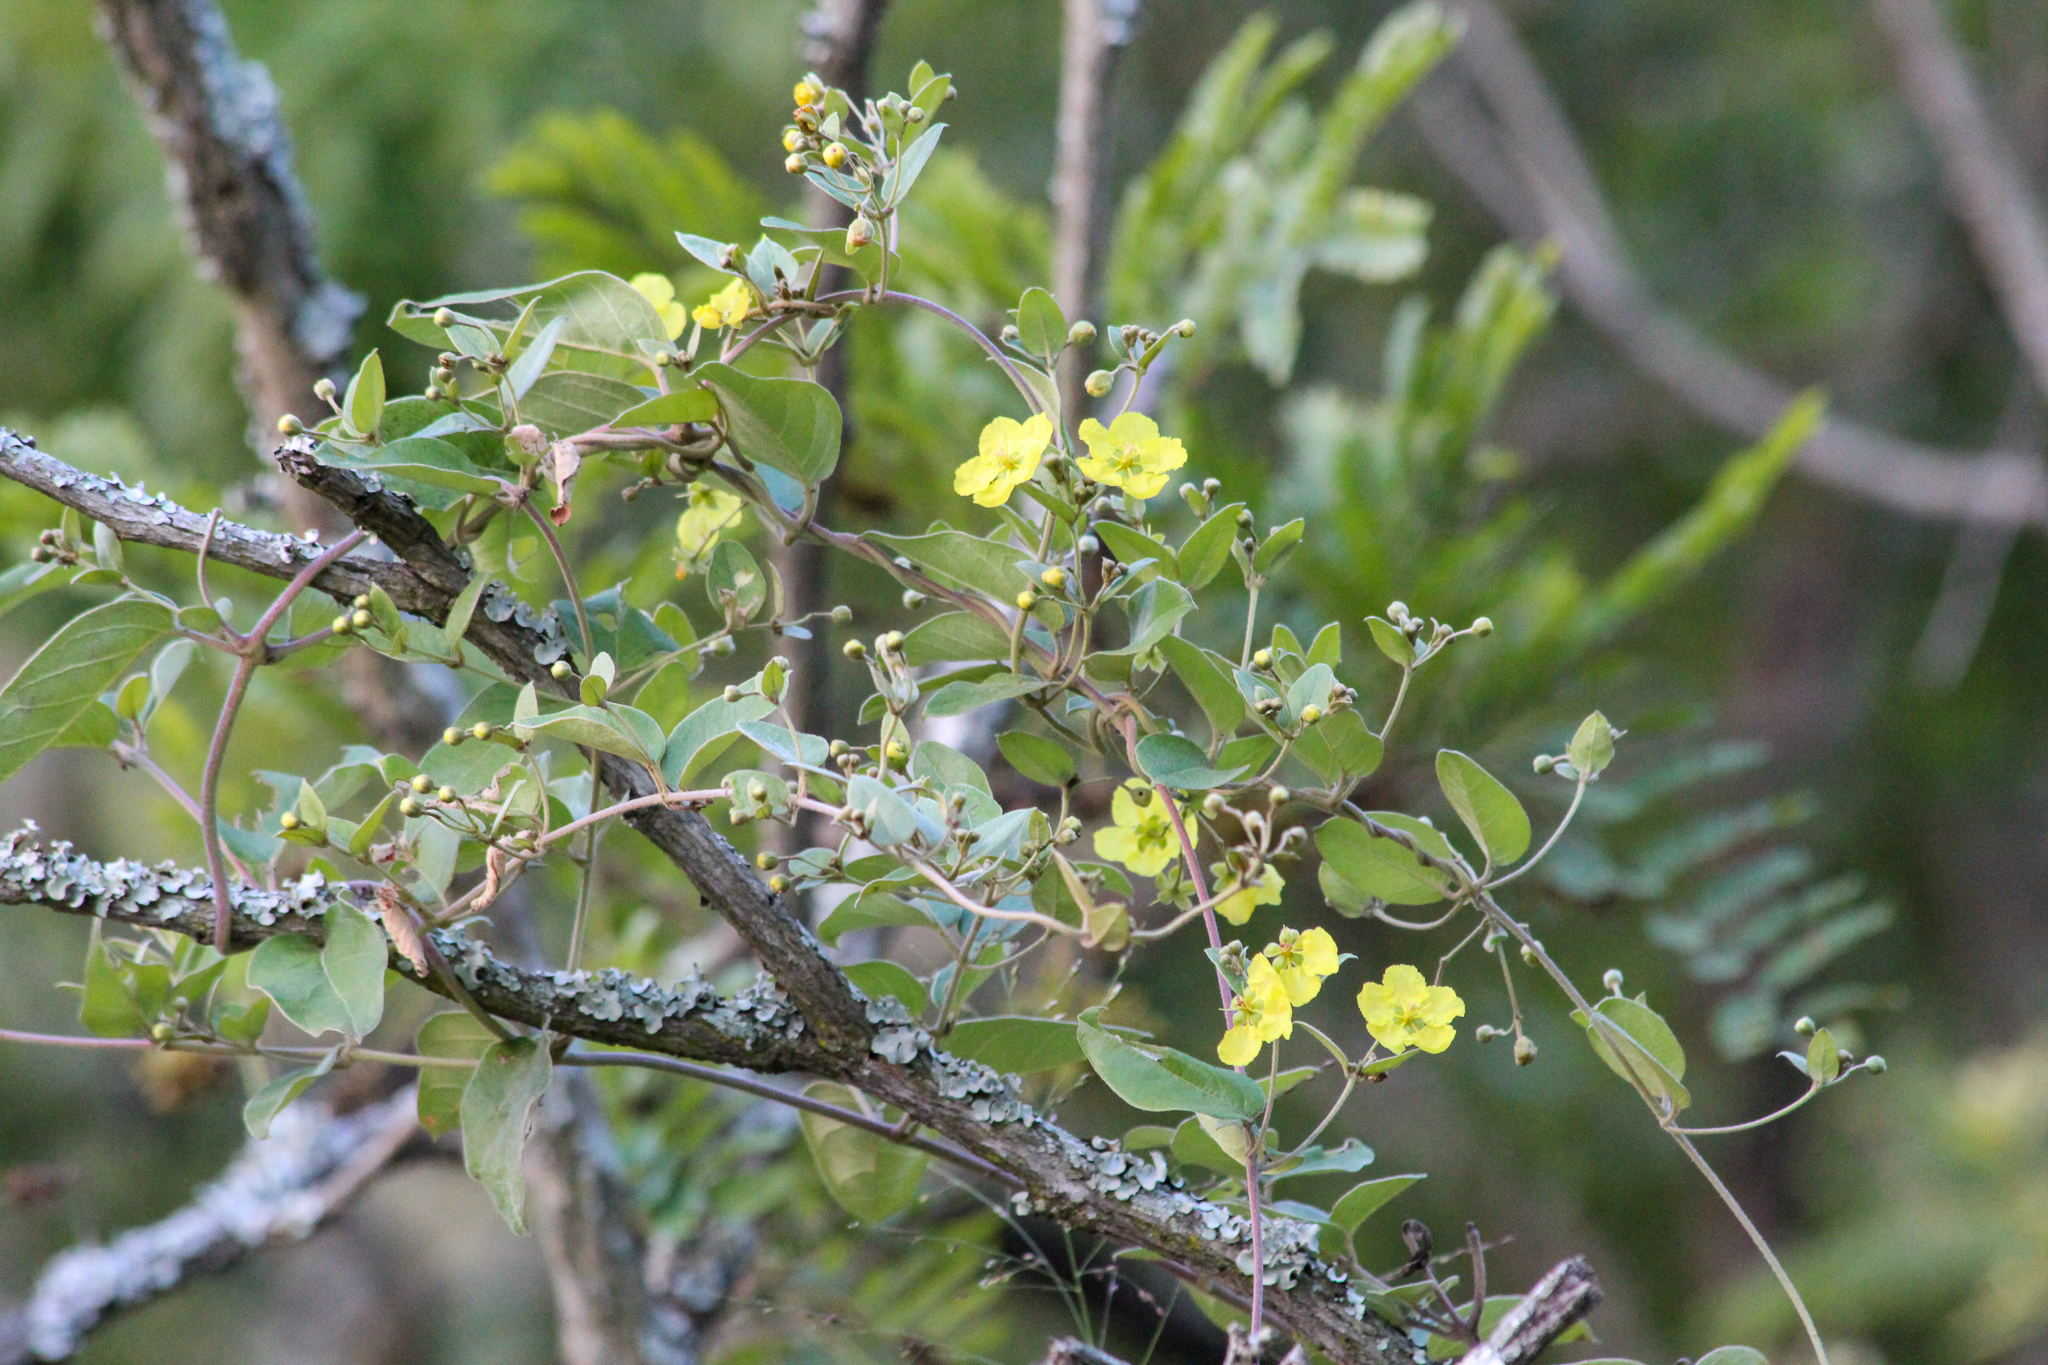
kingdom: Plantae
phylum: Tracheophyta
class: Magnoliopsida
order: Malpighiales
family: Malpighiaceae
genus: Sphedamnocarpus
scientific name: Sphedamnocarpus pruriens
